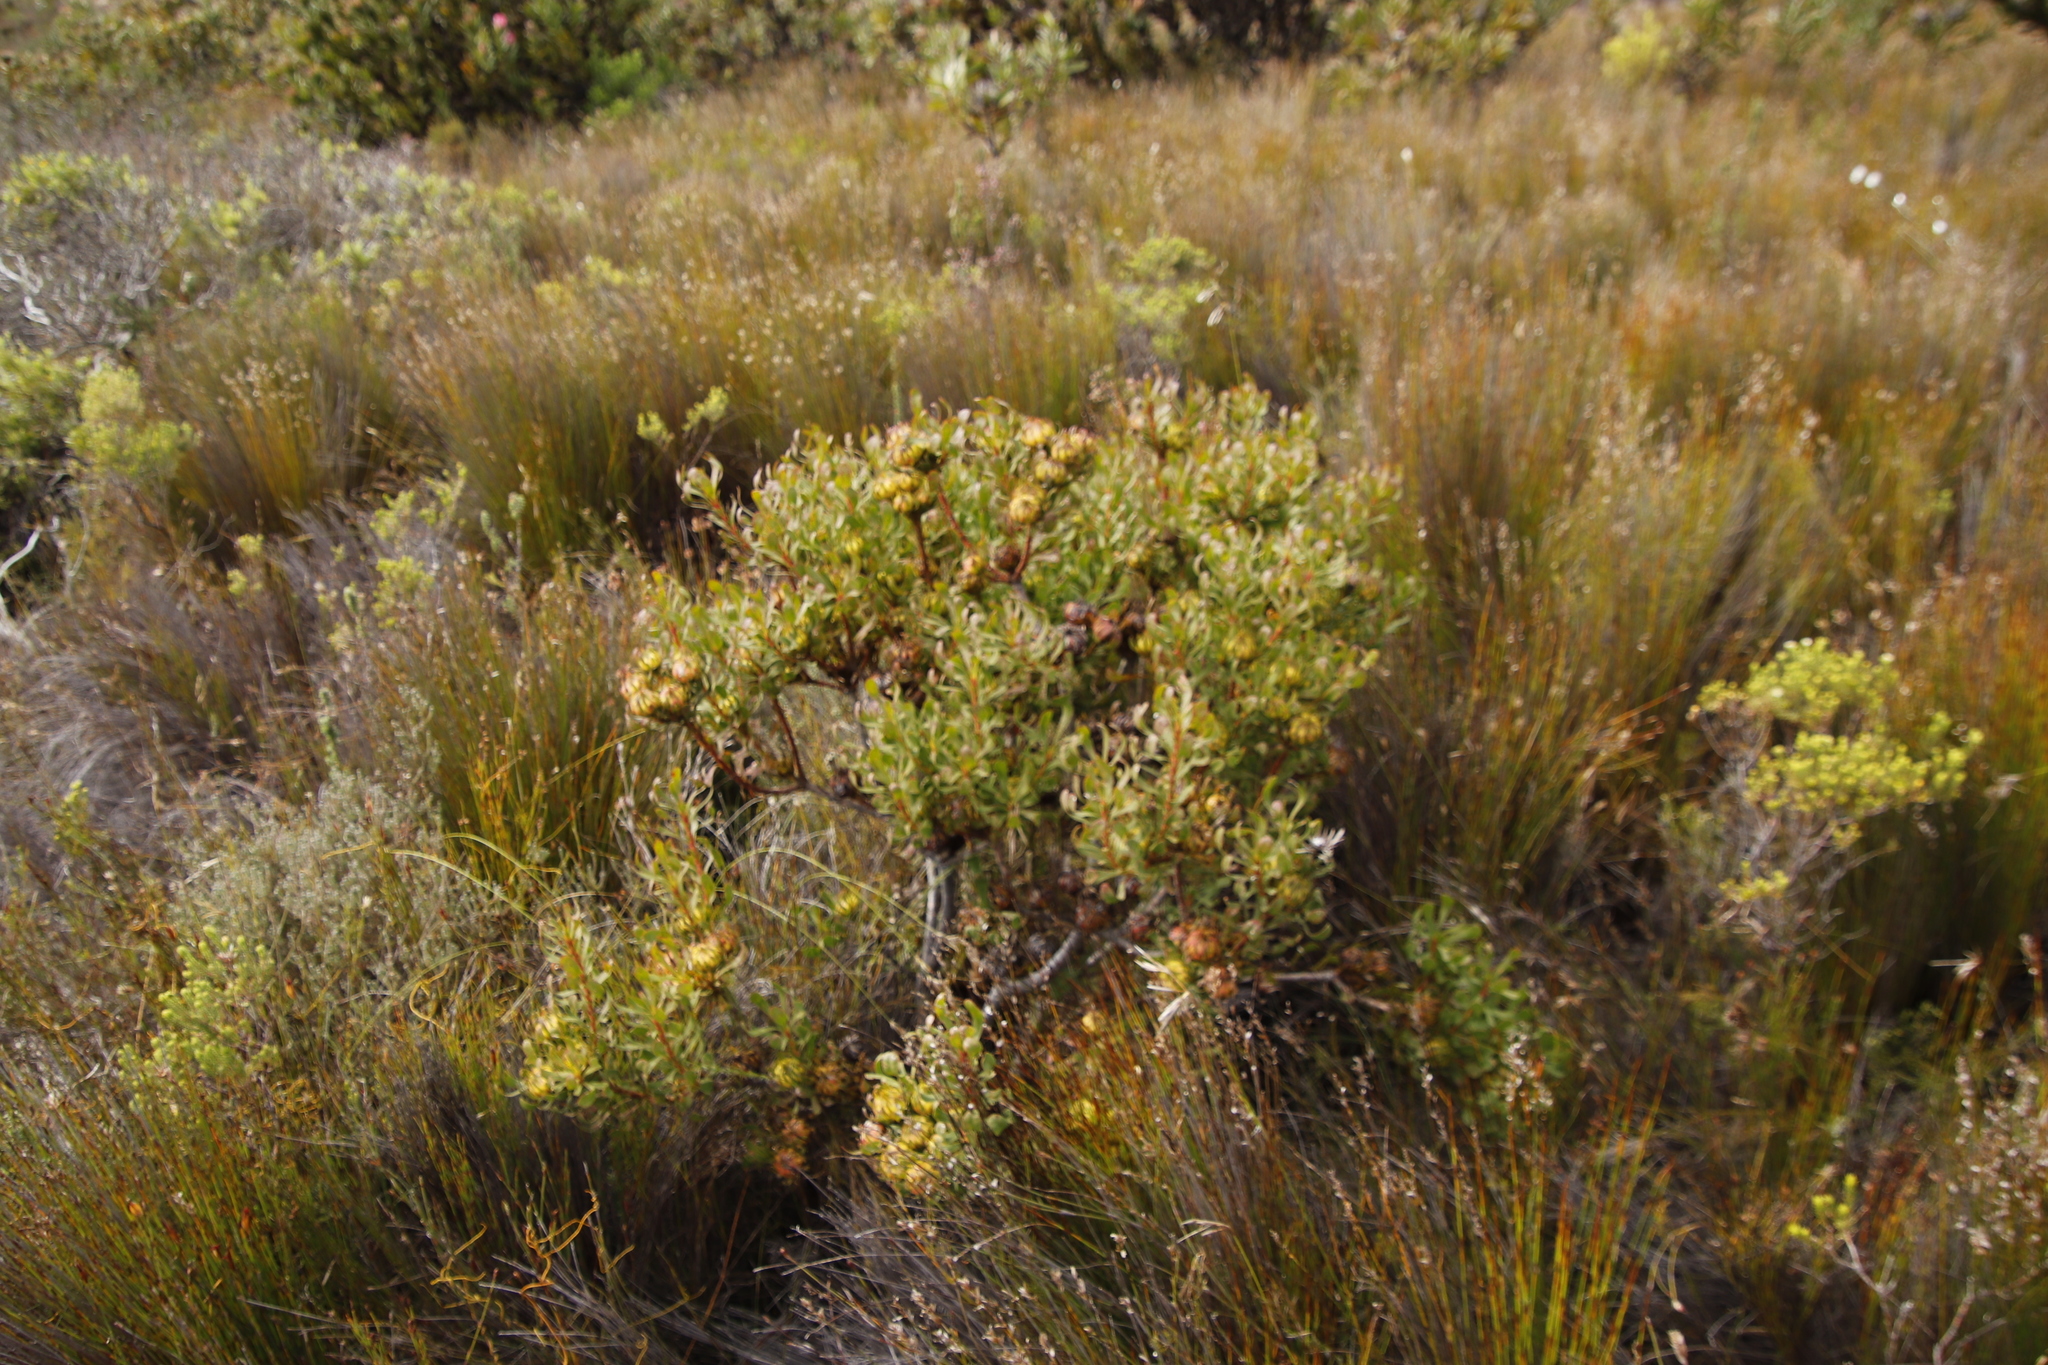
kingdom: Plantae
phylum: Tracheophyta
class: Magnoliopsida
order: Proteales
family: Proteaceae
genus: Aulax
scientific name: Aulax umbellata
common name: Broad-leaf featherbush
